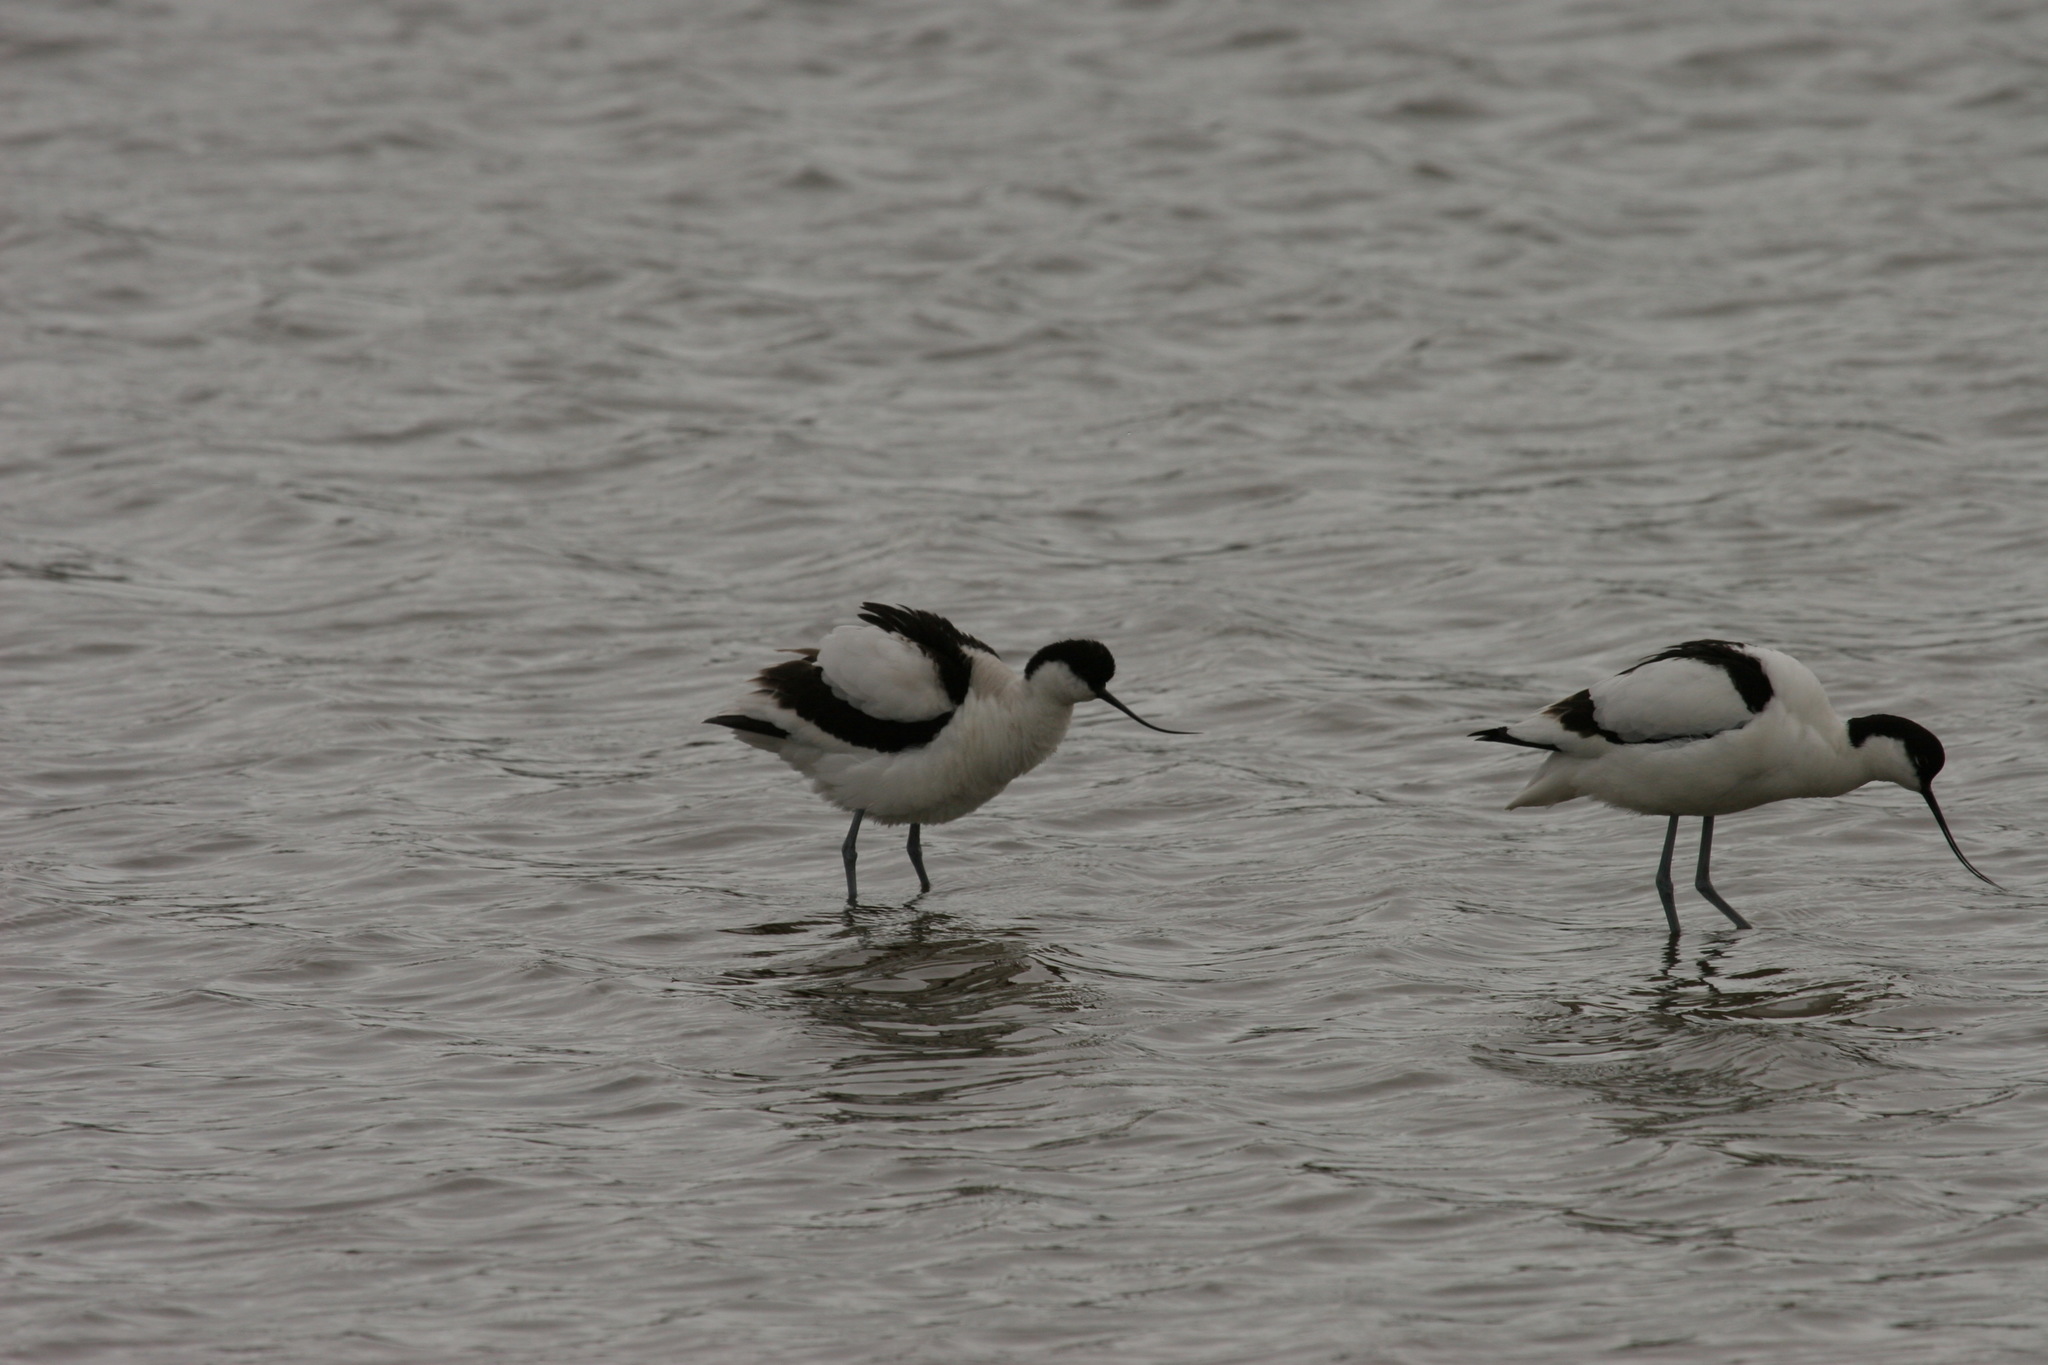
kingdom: Animalia
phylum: Chordata
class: Aves
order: Charadriiformes
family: Recurvirostridae
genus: Recurvirostra
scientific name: Recurvirostra avosetta
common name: Pied avocet
